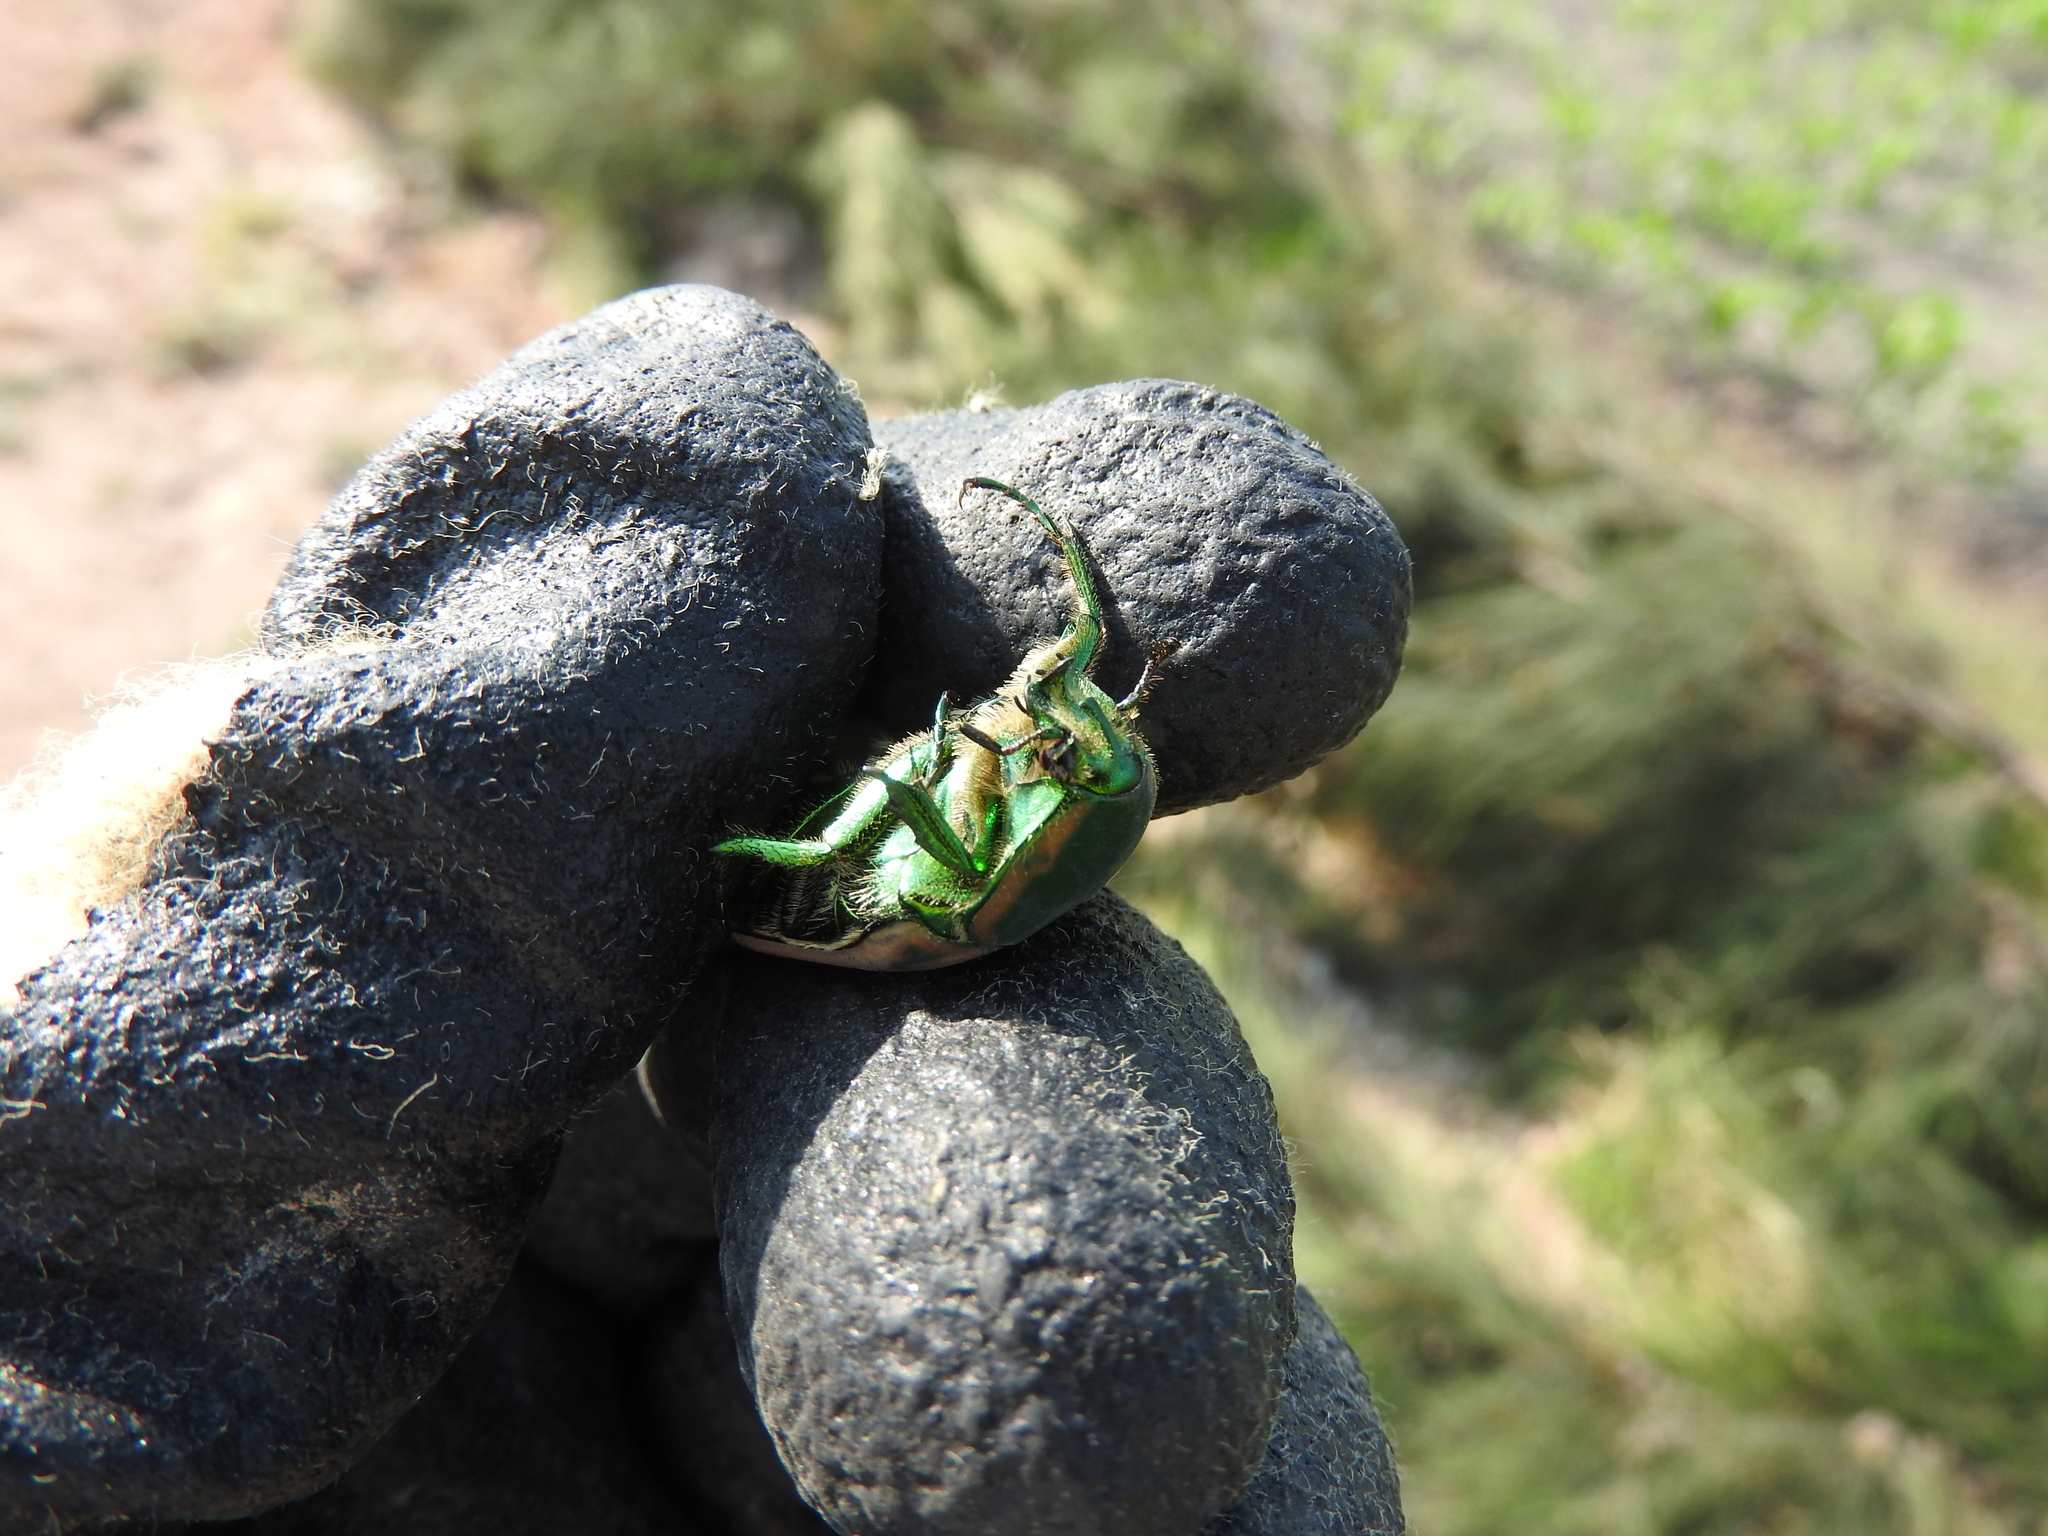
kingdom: Animalia
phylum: Arthropoda
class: Insecta
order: Coleoptera
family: Scarabaeidae
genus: Cotinis
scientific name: Cotinis mutabilis
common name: Figeater beetle
